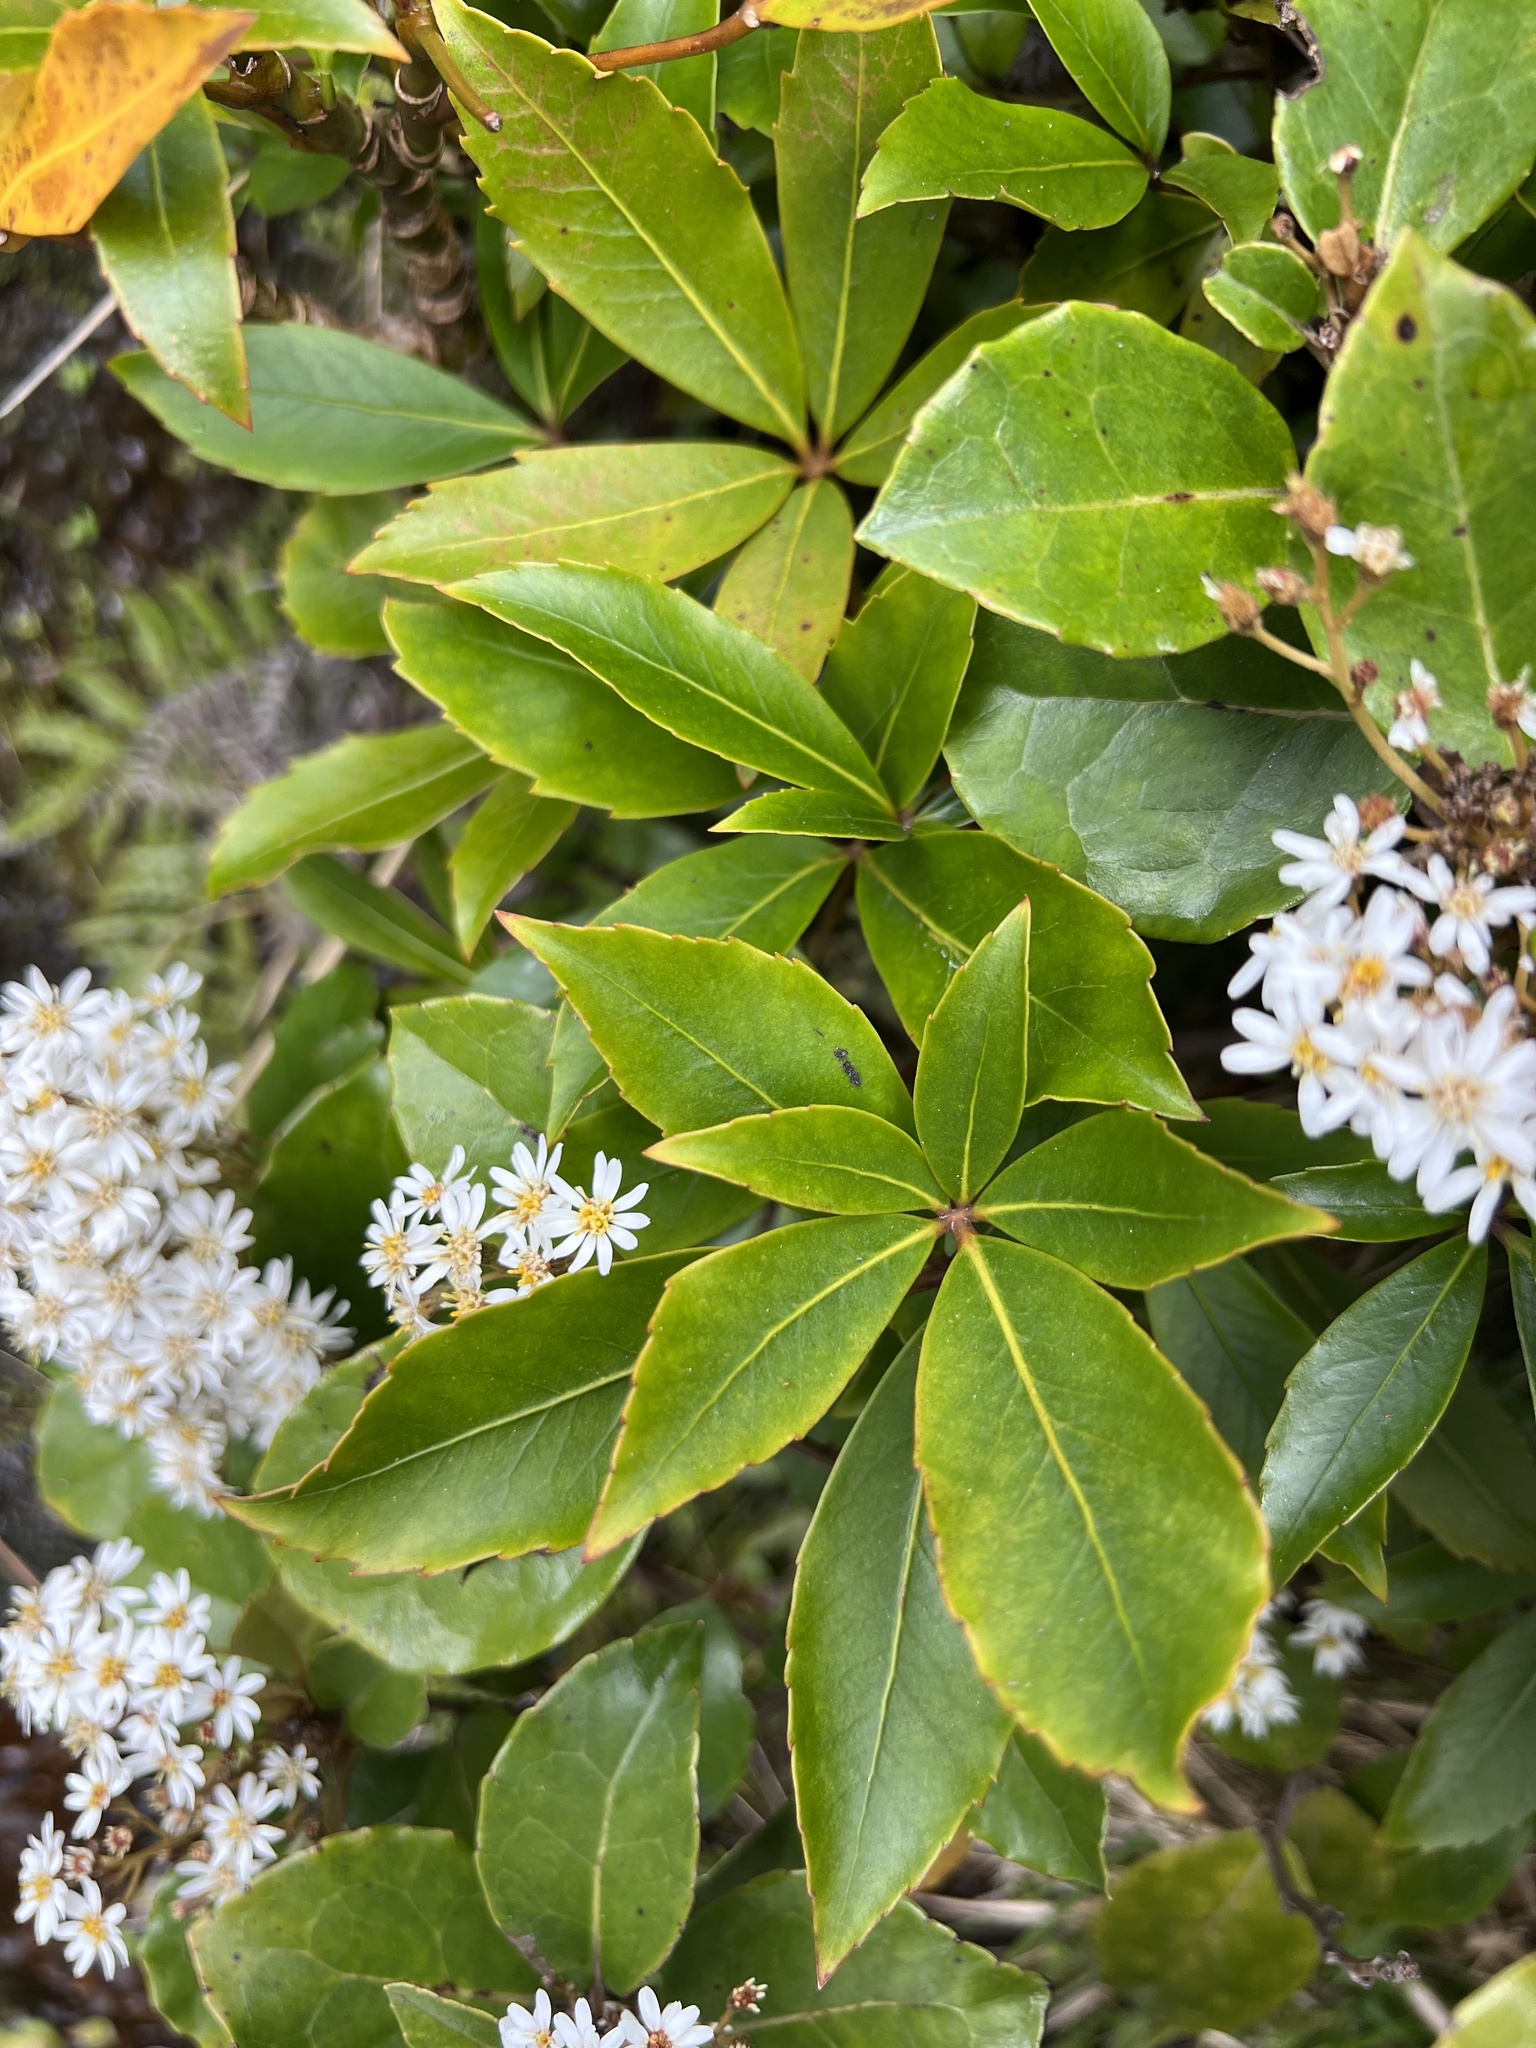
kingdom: Plantae
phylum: Tracheophyta
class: Magnoliopsida
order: Apiales
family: Araliaceae
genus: Neopanax
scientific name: Neopanax colensoi
